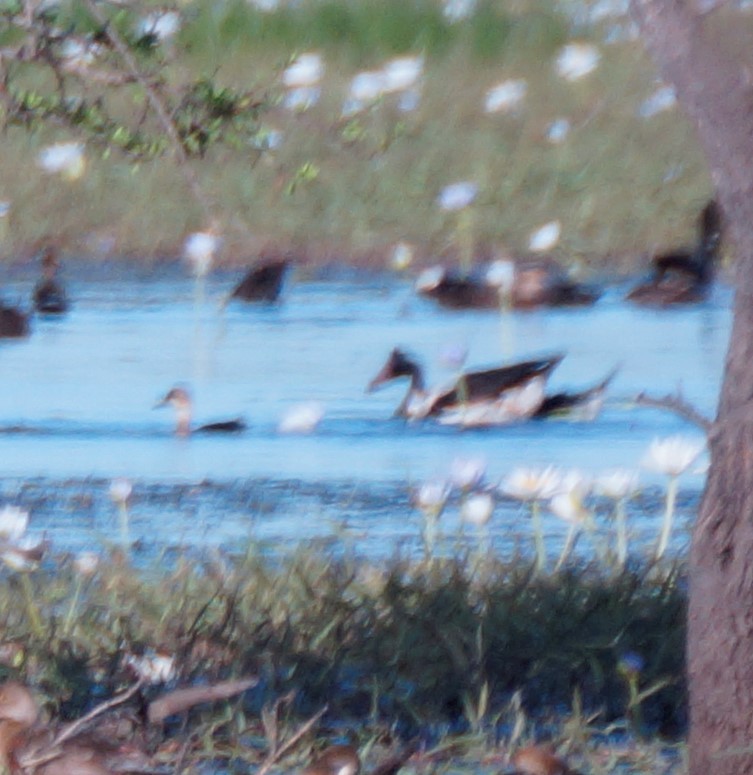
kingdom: Animalia
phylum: Chordata
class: Aves
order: Anseriformes
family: Anseranatidae
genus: Anseranas
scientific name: Anseranas semipalmata
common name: Magpie goose
